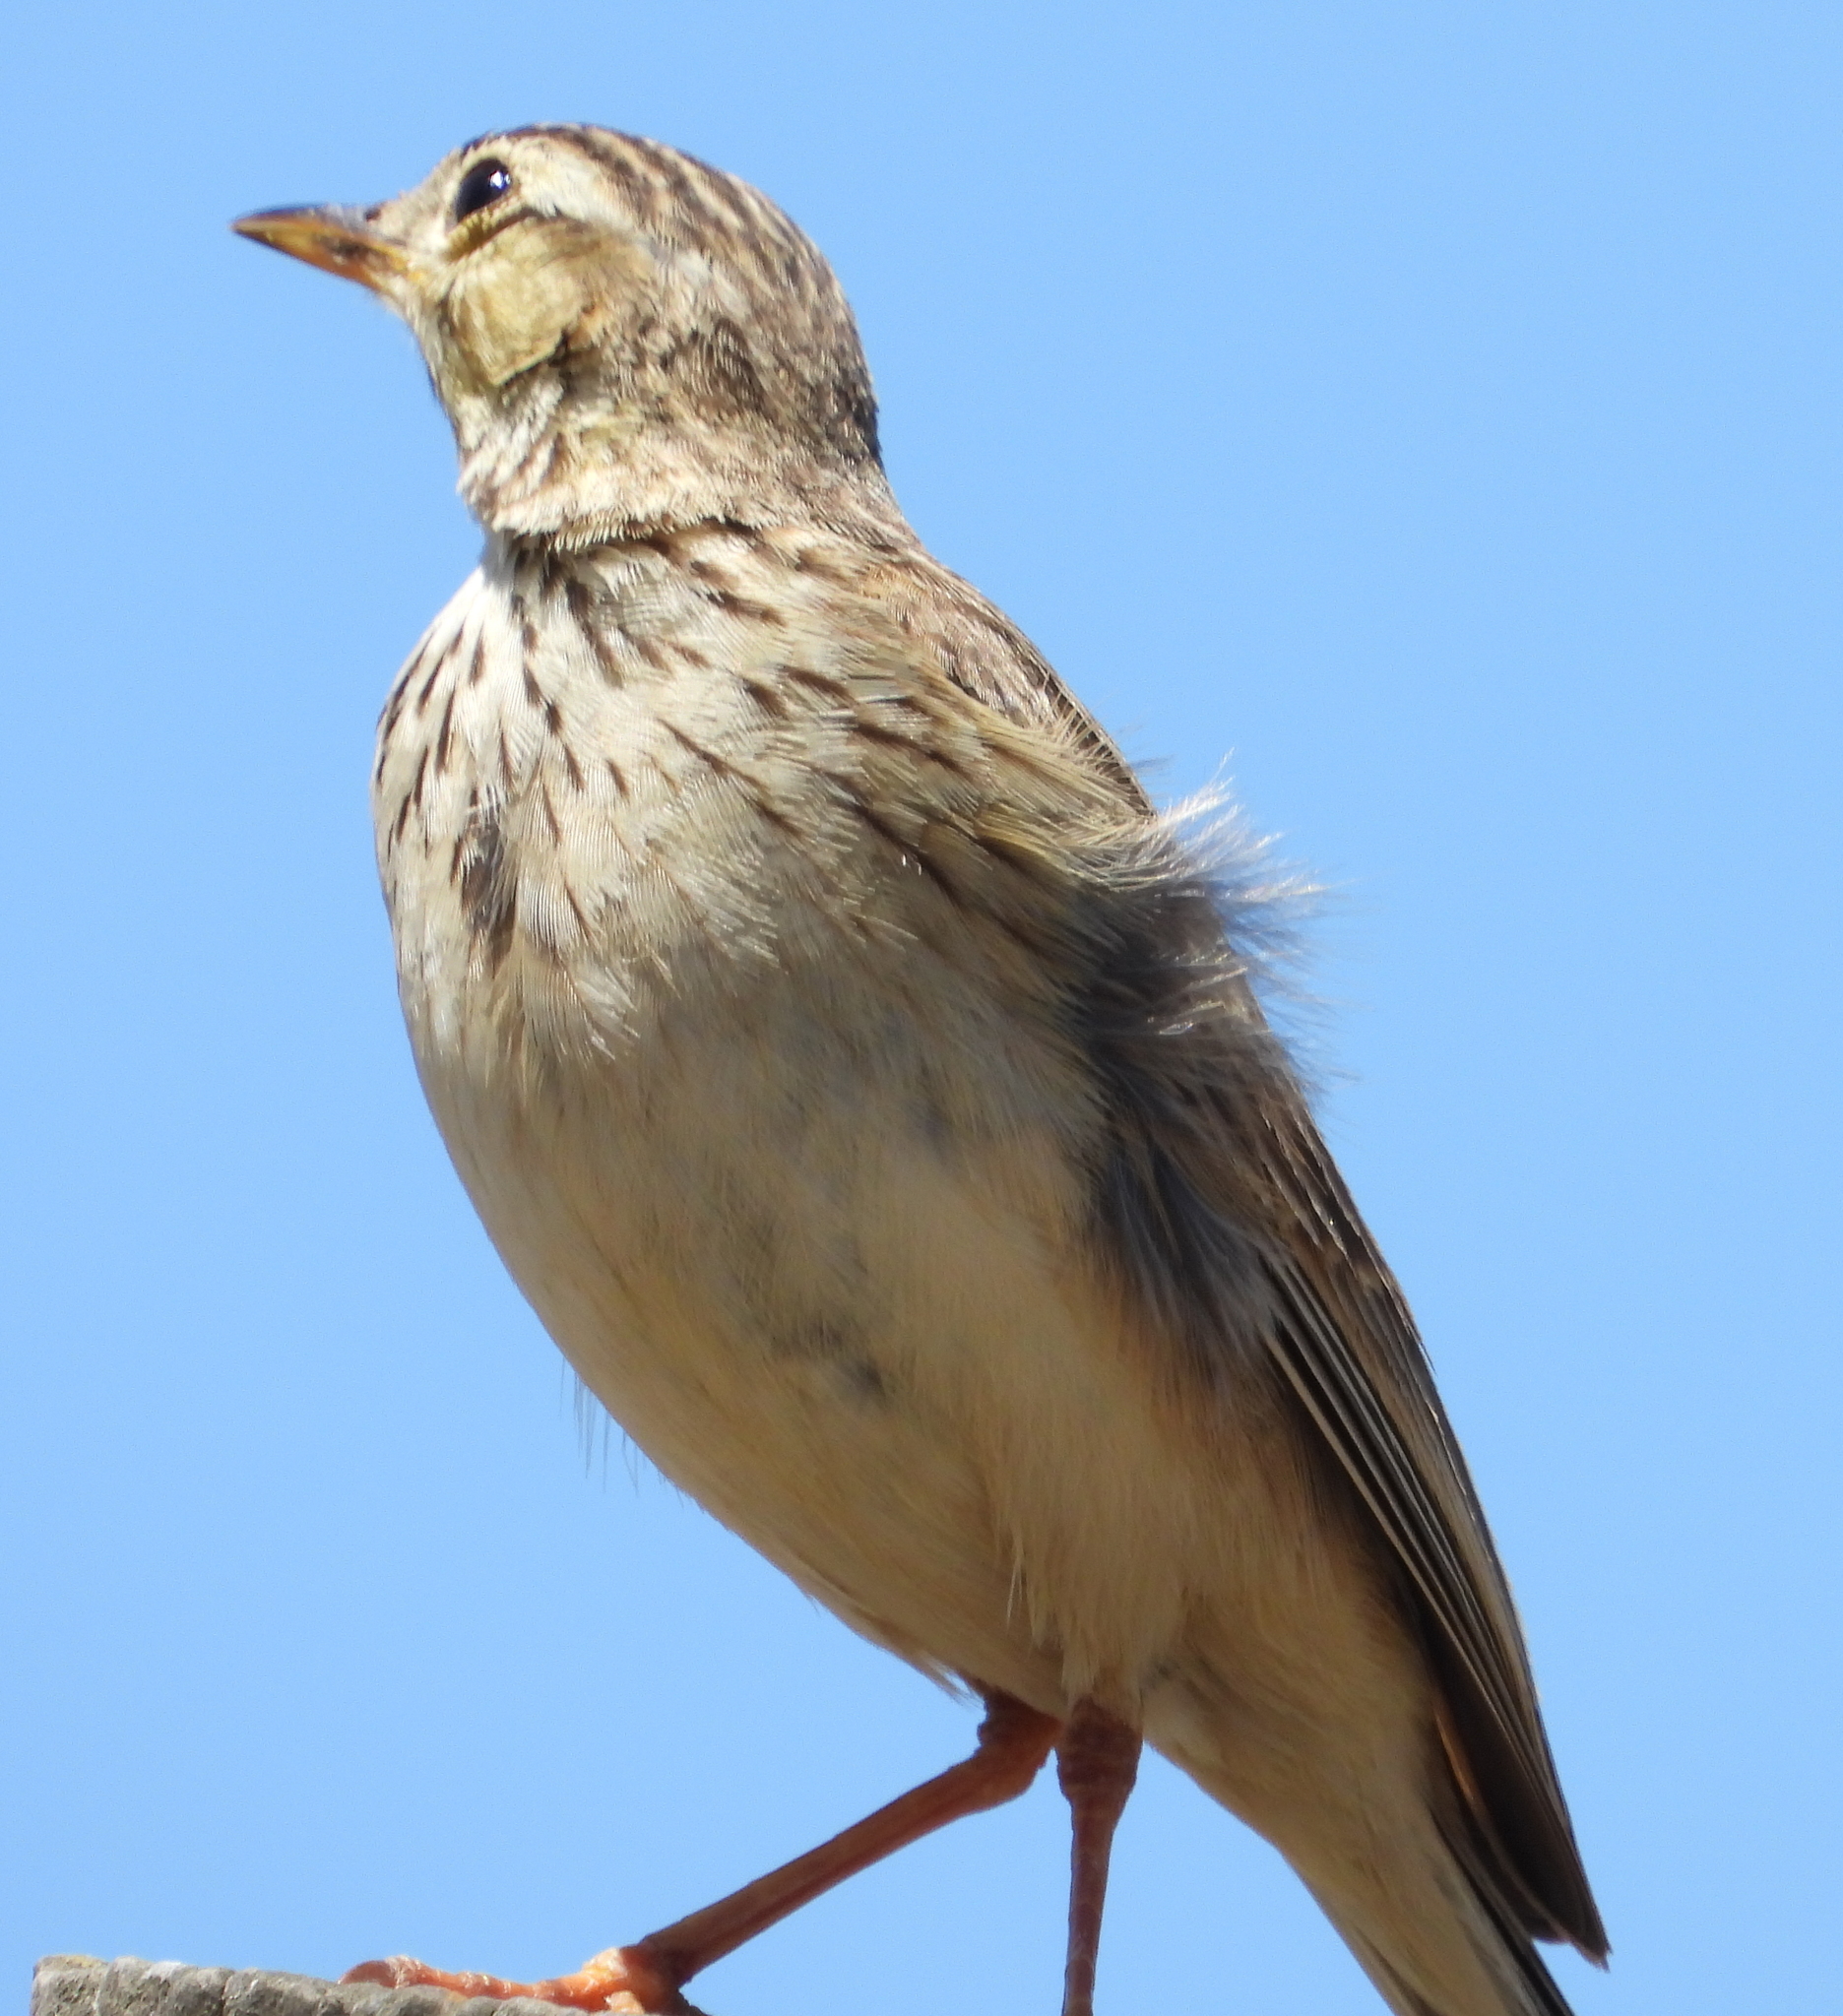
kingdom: Animalia
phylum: Chordata
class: Aves
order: Passeriformes
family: Motacillidae
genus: Anthus
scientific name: Anthus cinnamomeus
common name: African pipit
